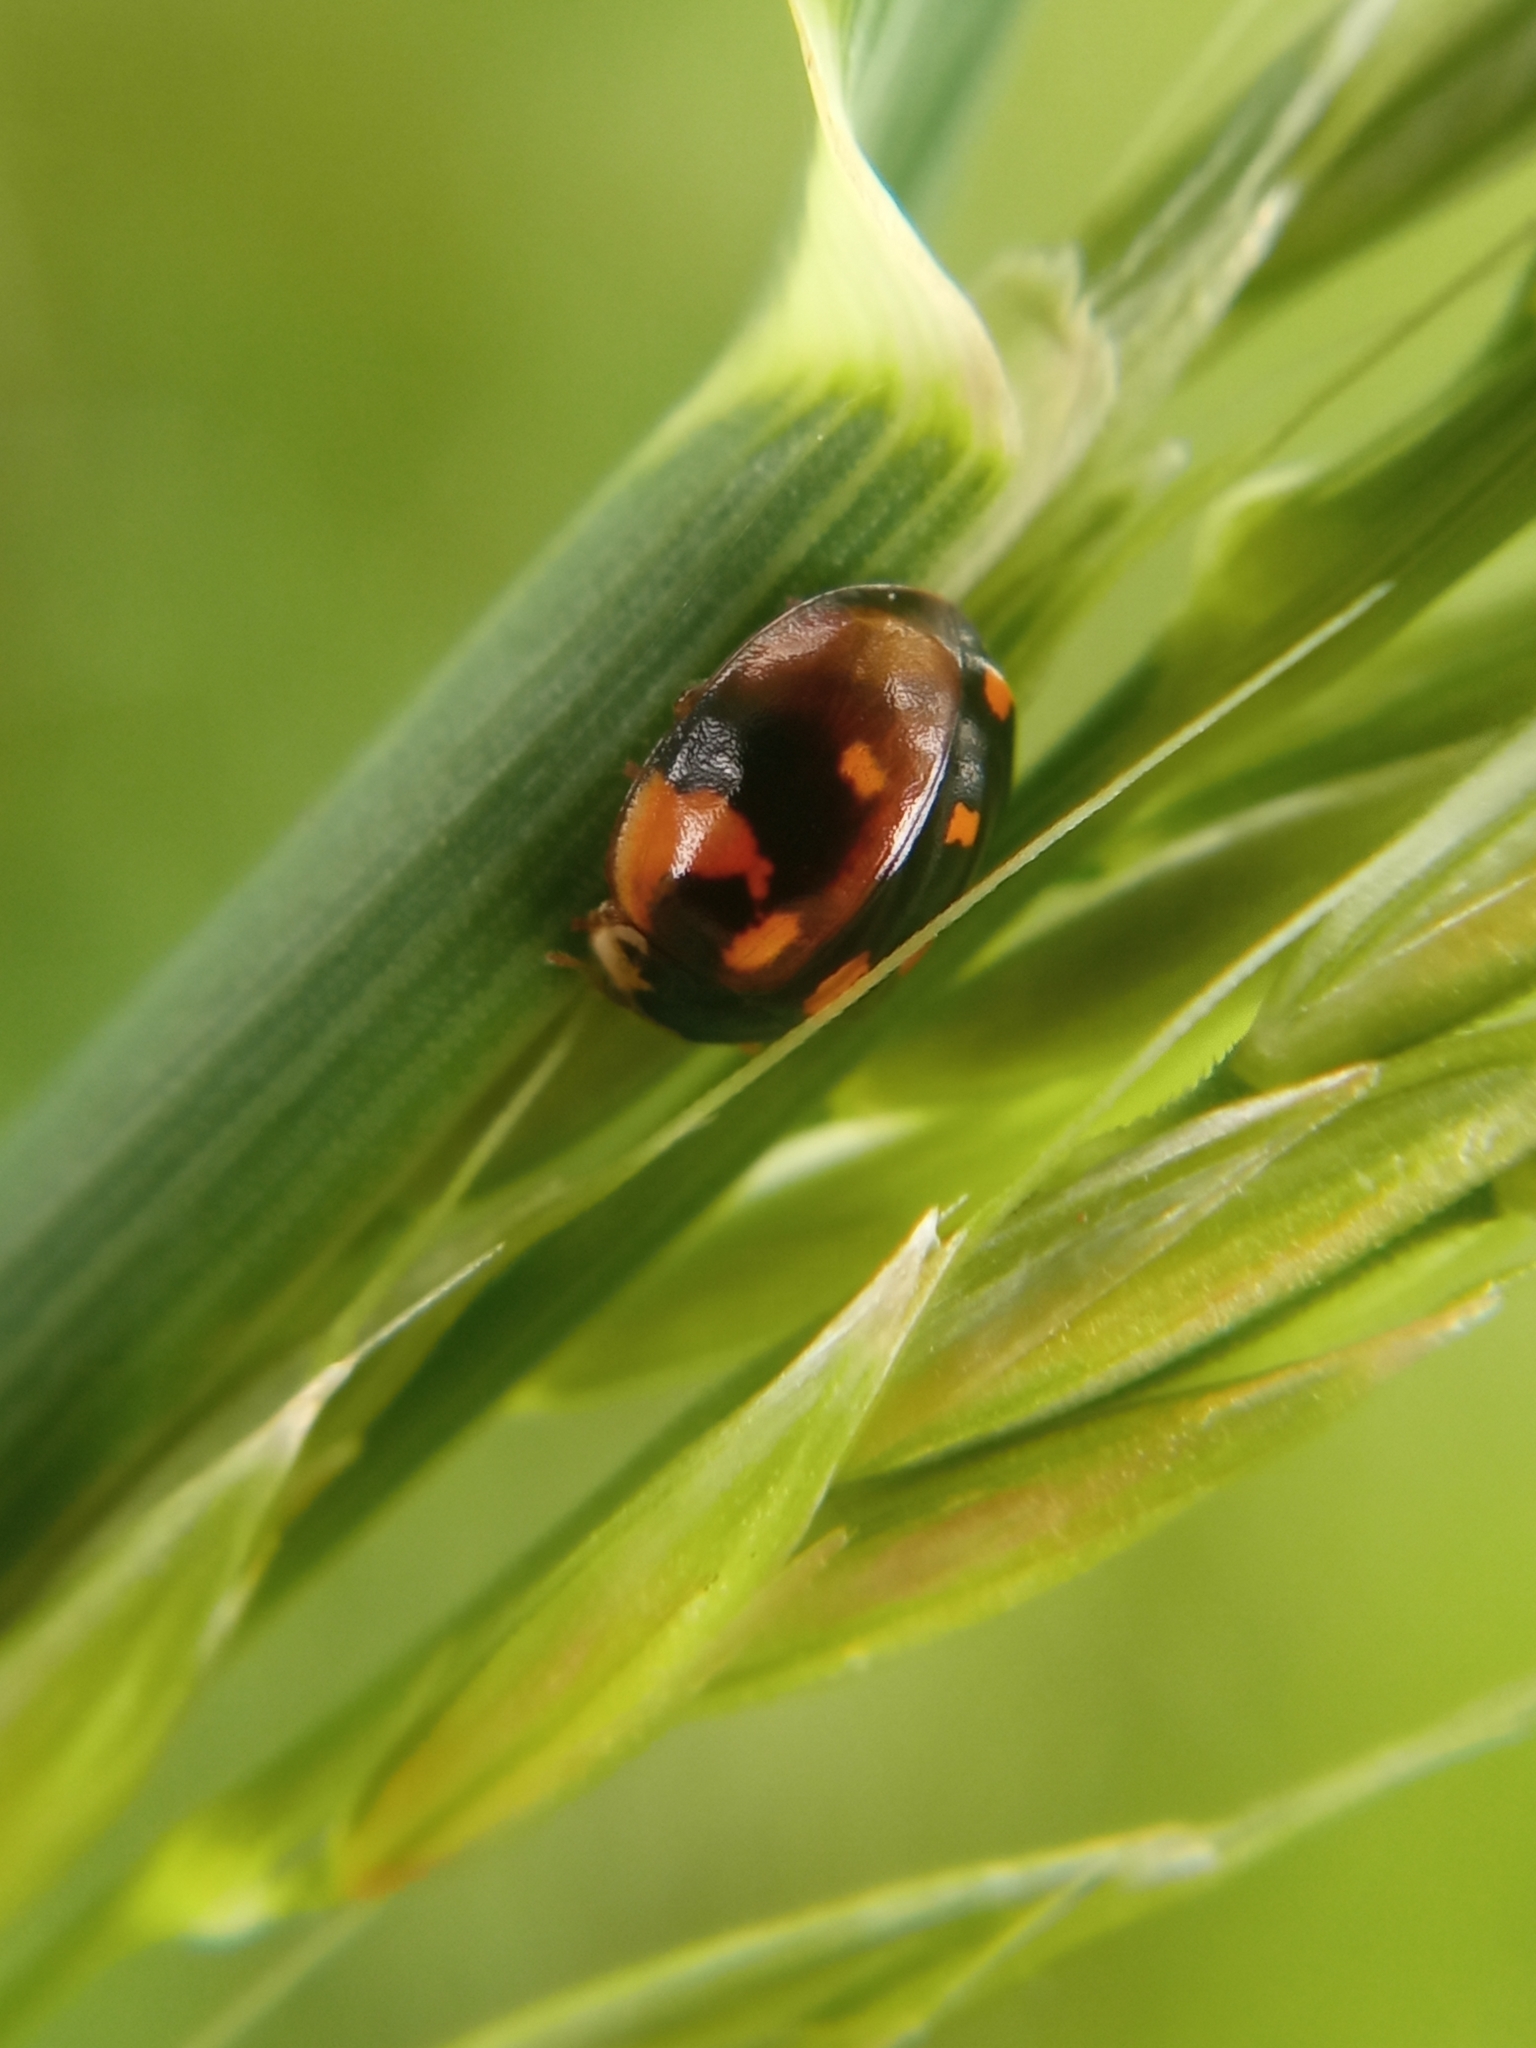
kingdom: Animalia
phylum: Arthropoda
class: Insecta
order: Coleoptera
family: Coccinellidae
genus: Adalia
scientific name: Adalia decempunctata
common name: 10-spot ladybird
